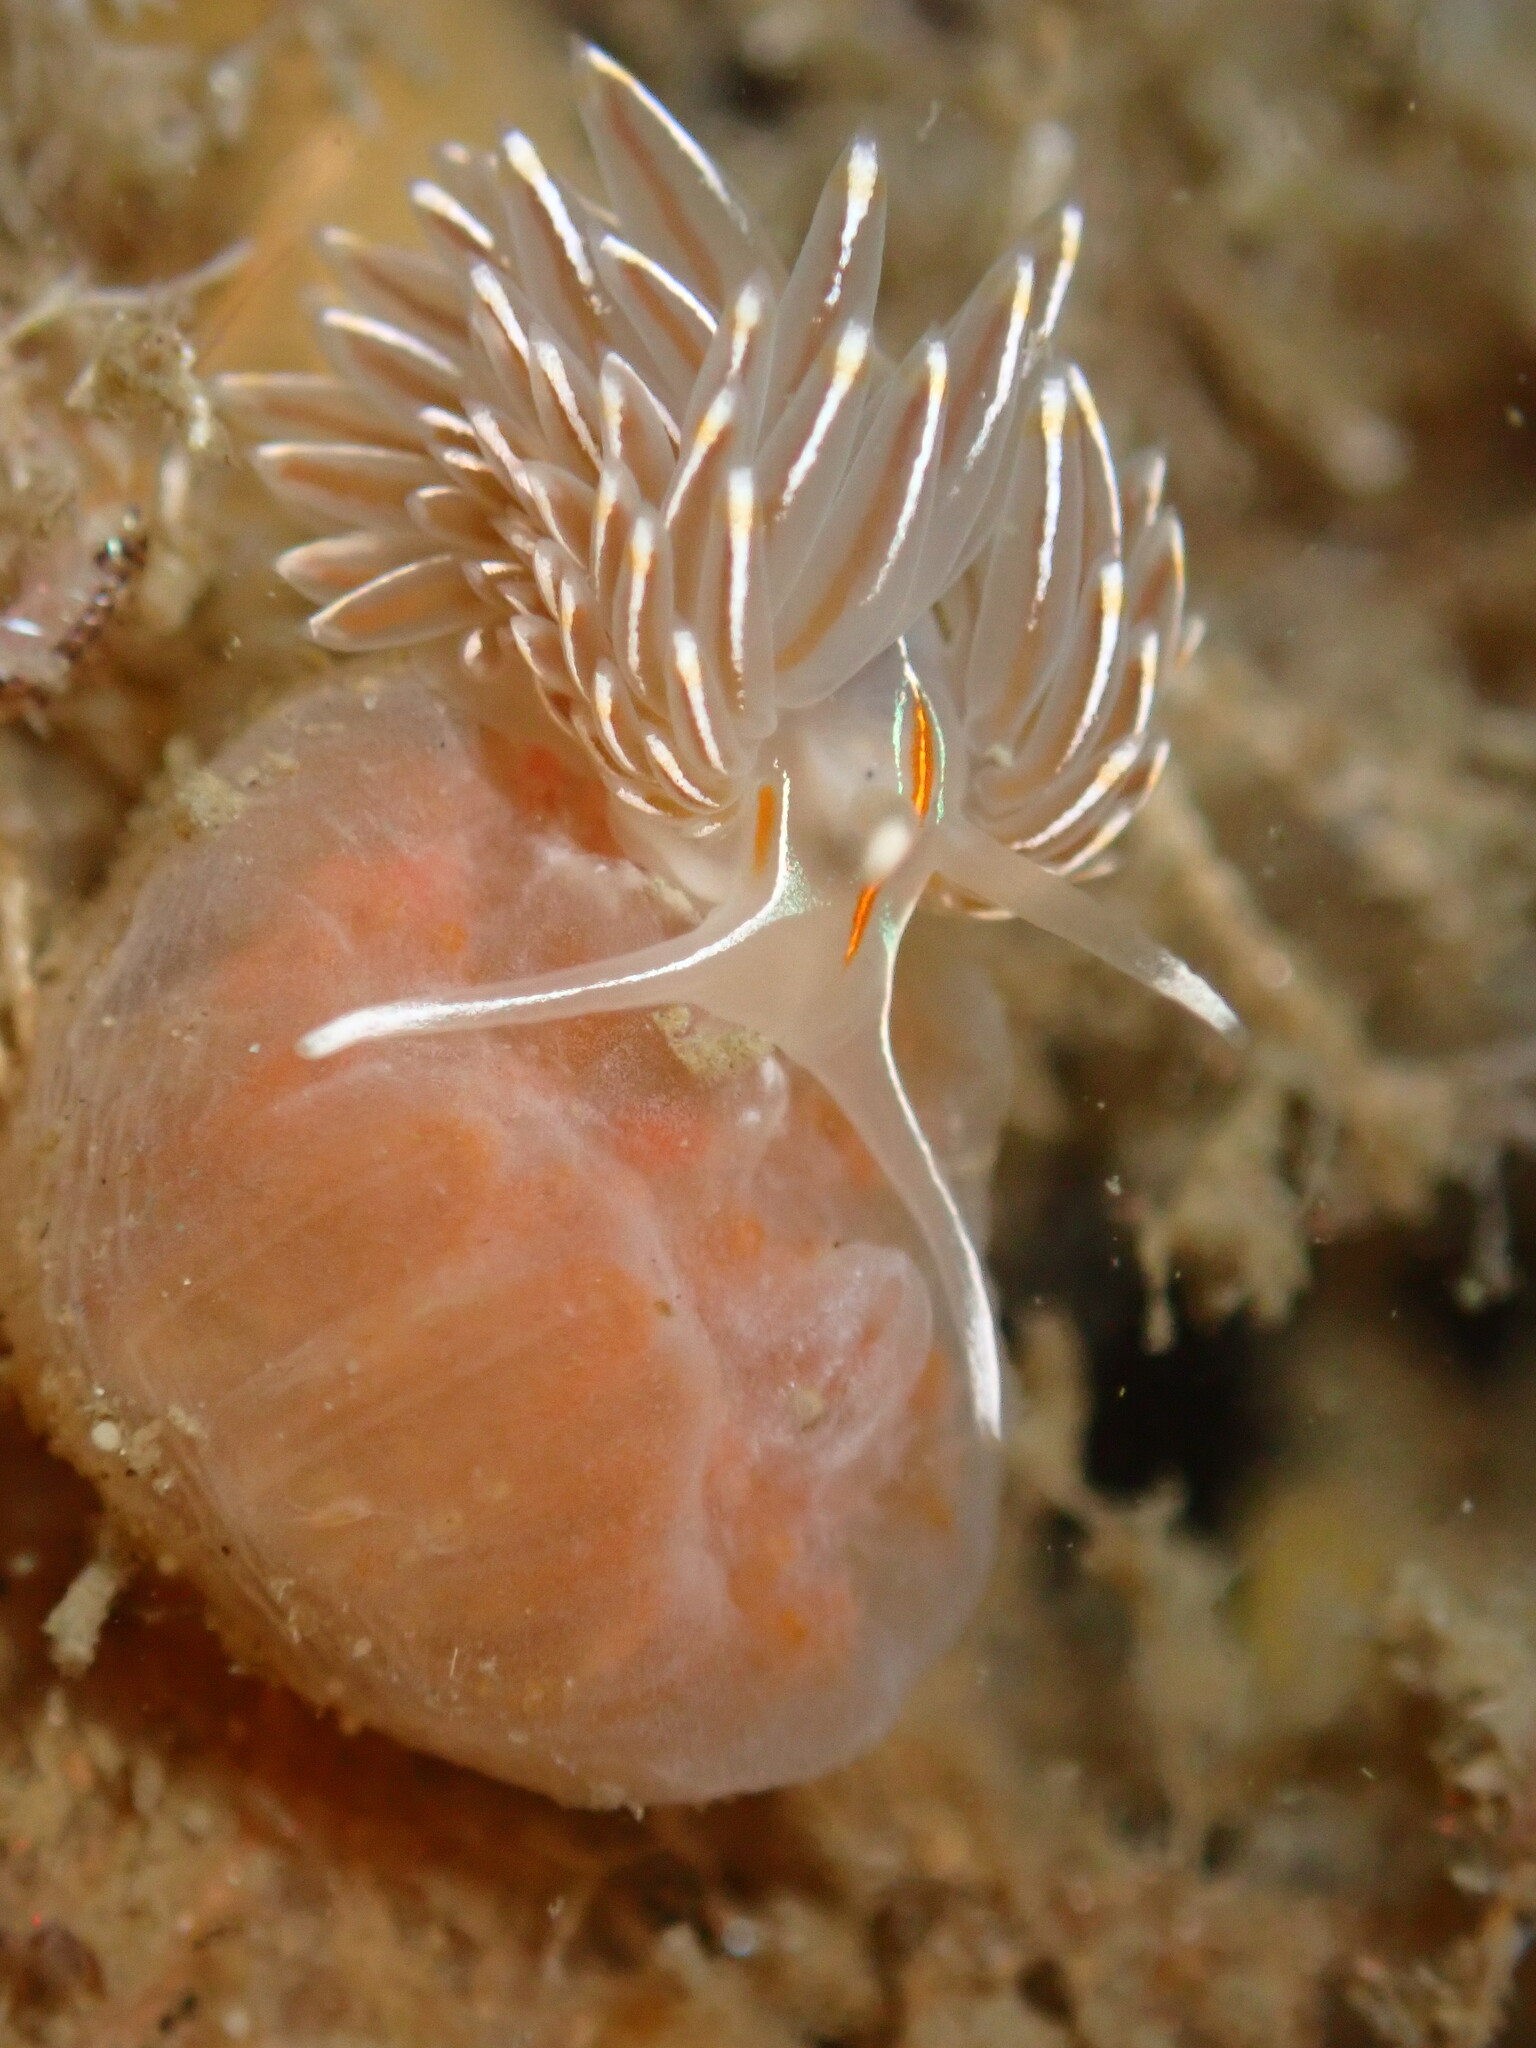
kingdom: Animalia
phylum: Mollusca
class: Gastropoda
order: Nudibranchia
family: Myrrhinidae
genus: Hermissenda
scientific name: Hermissenda crassicornis
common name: Hermissenda
